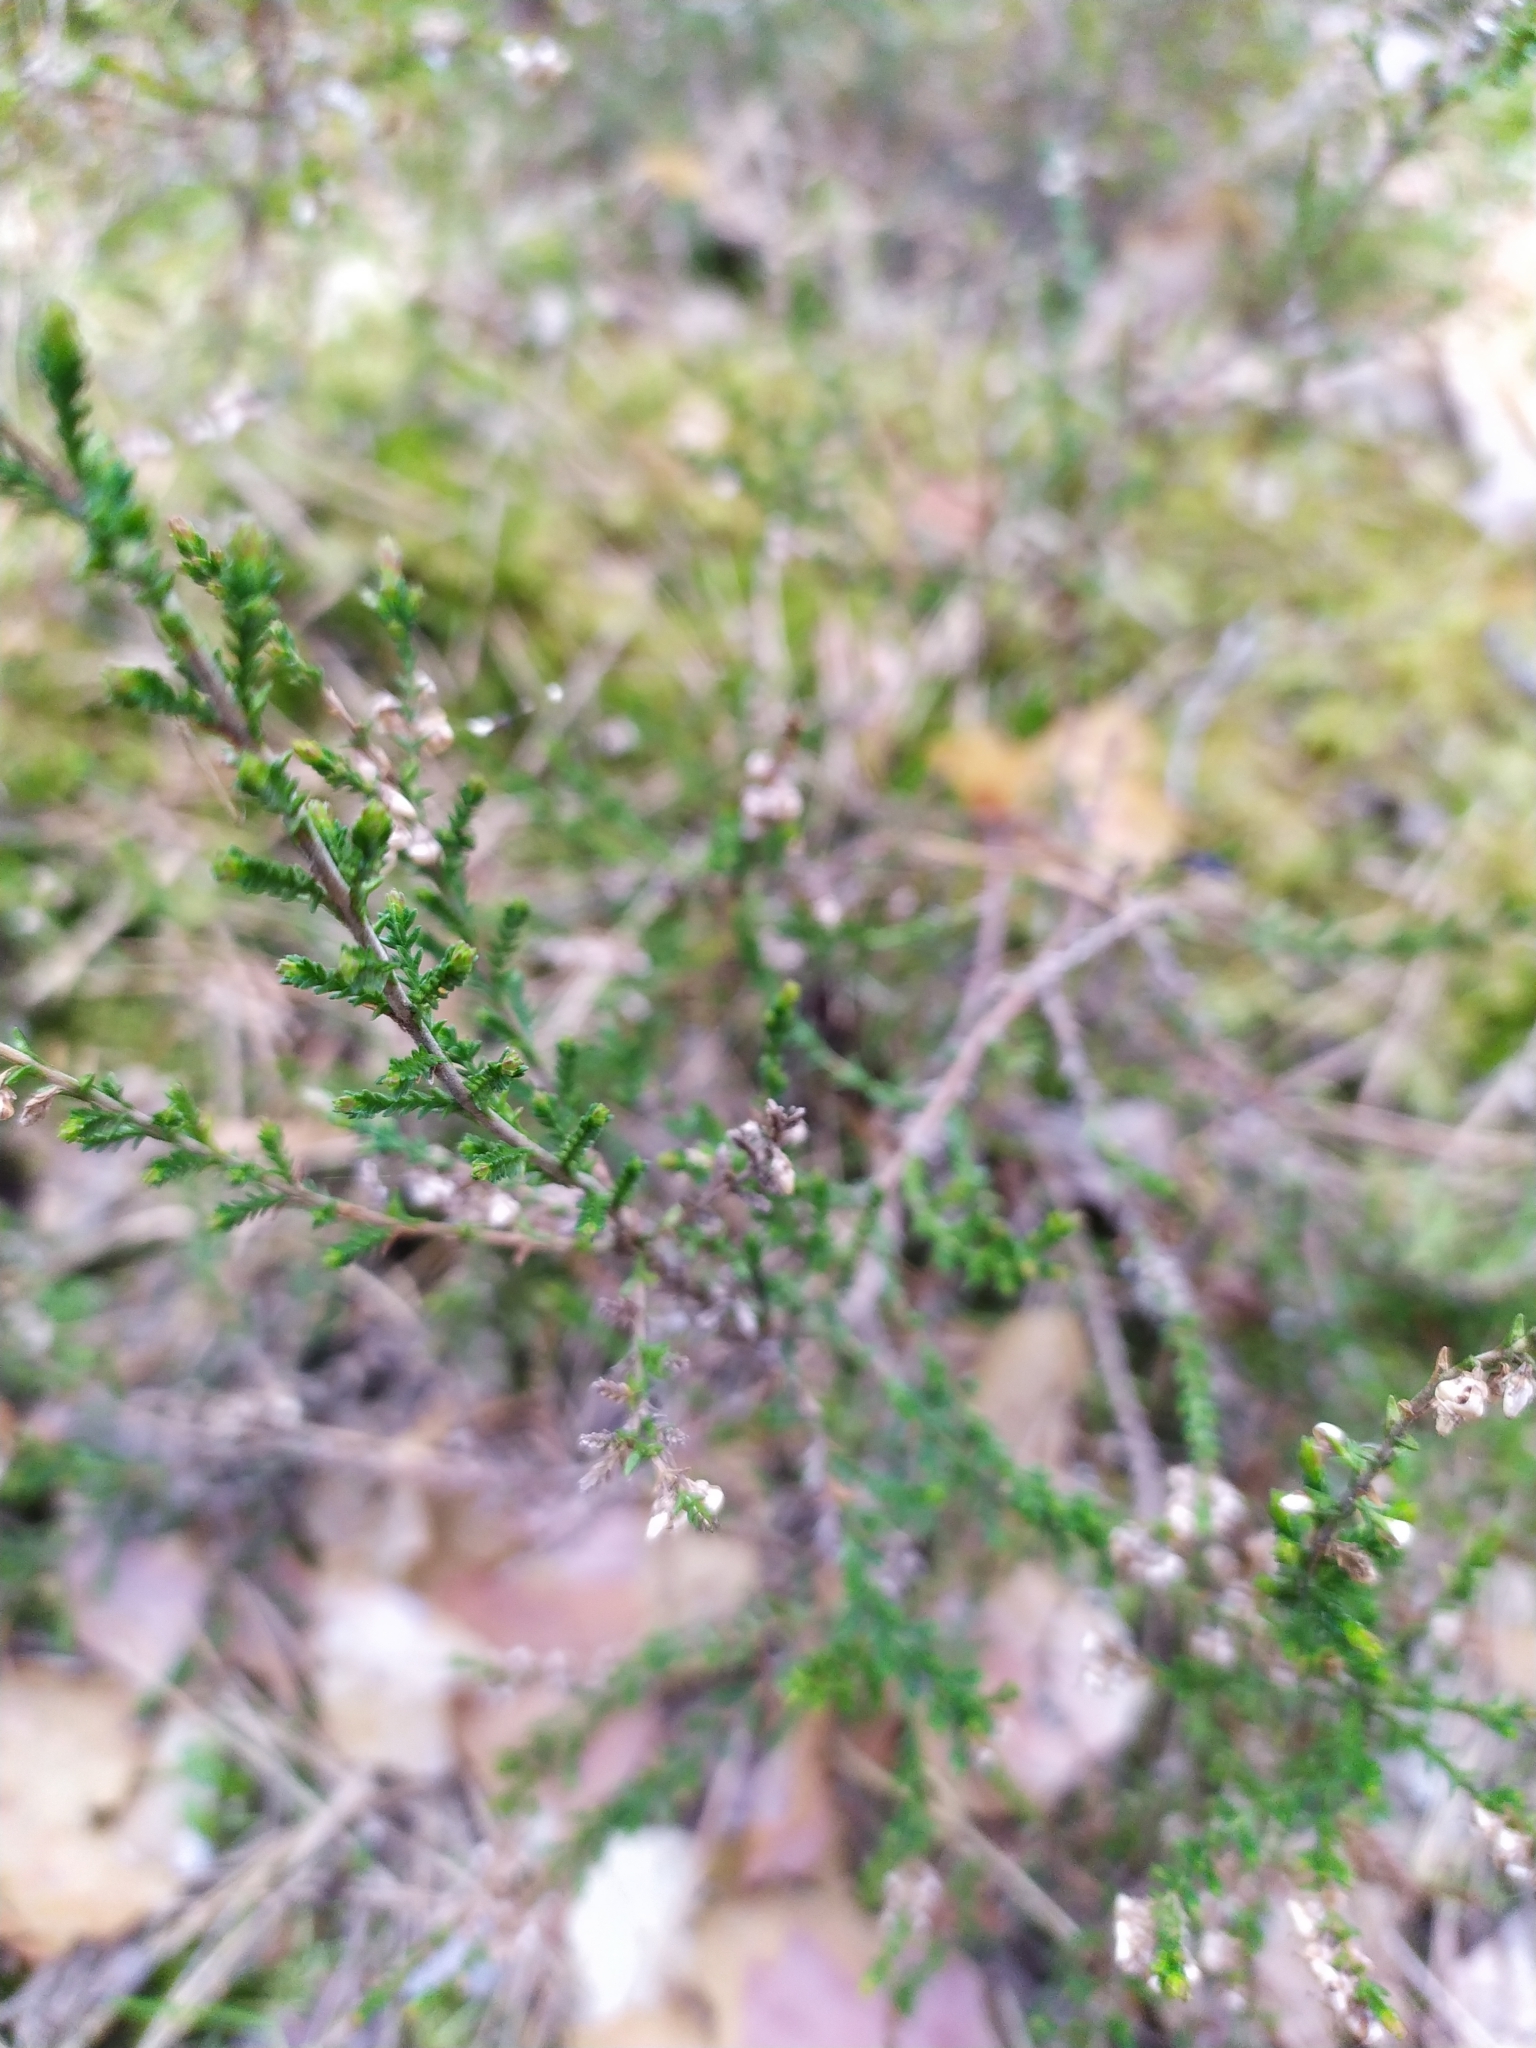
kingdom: Plantae
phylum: Tracheophyta
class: Magnoliopsida
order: Ericales
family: Ericaceae
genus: Calluna
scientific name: Calluna vulgaris
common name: Heather
